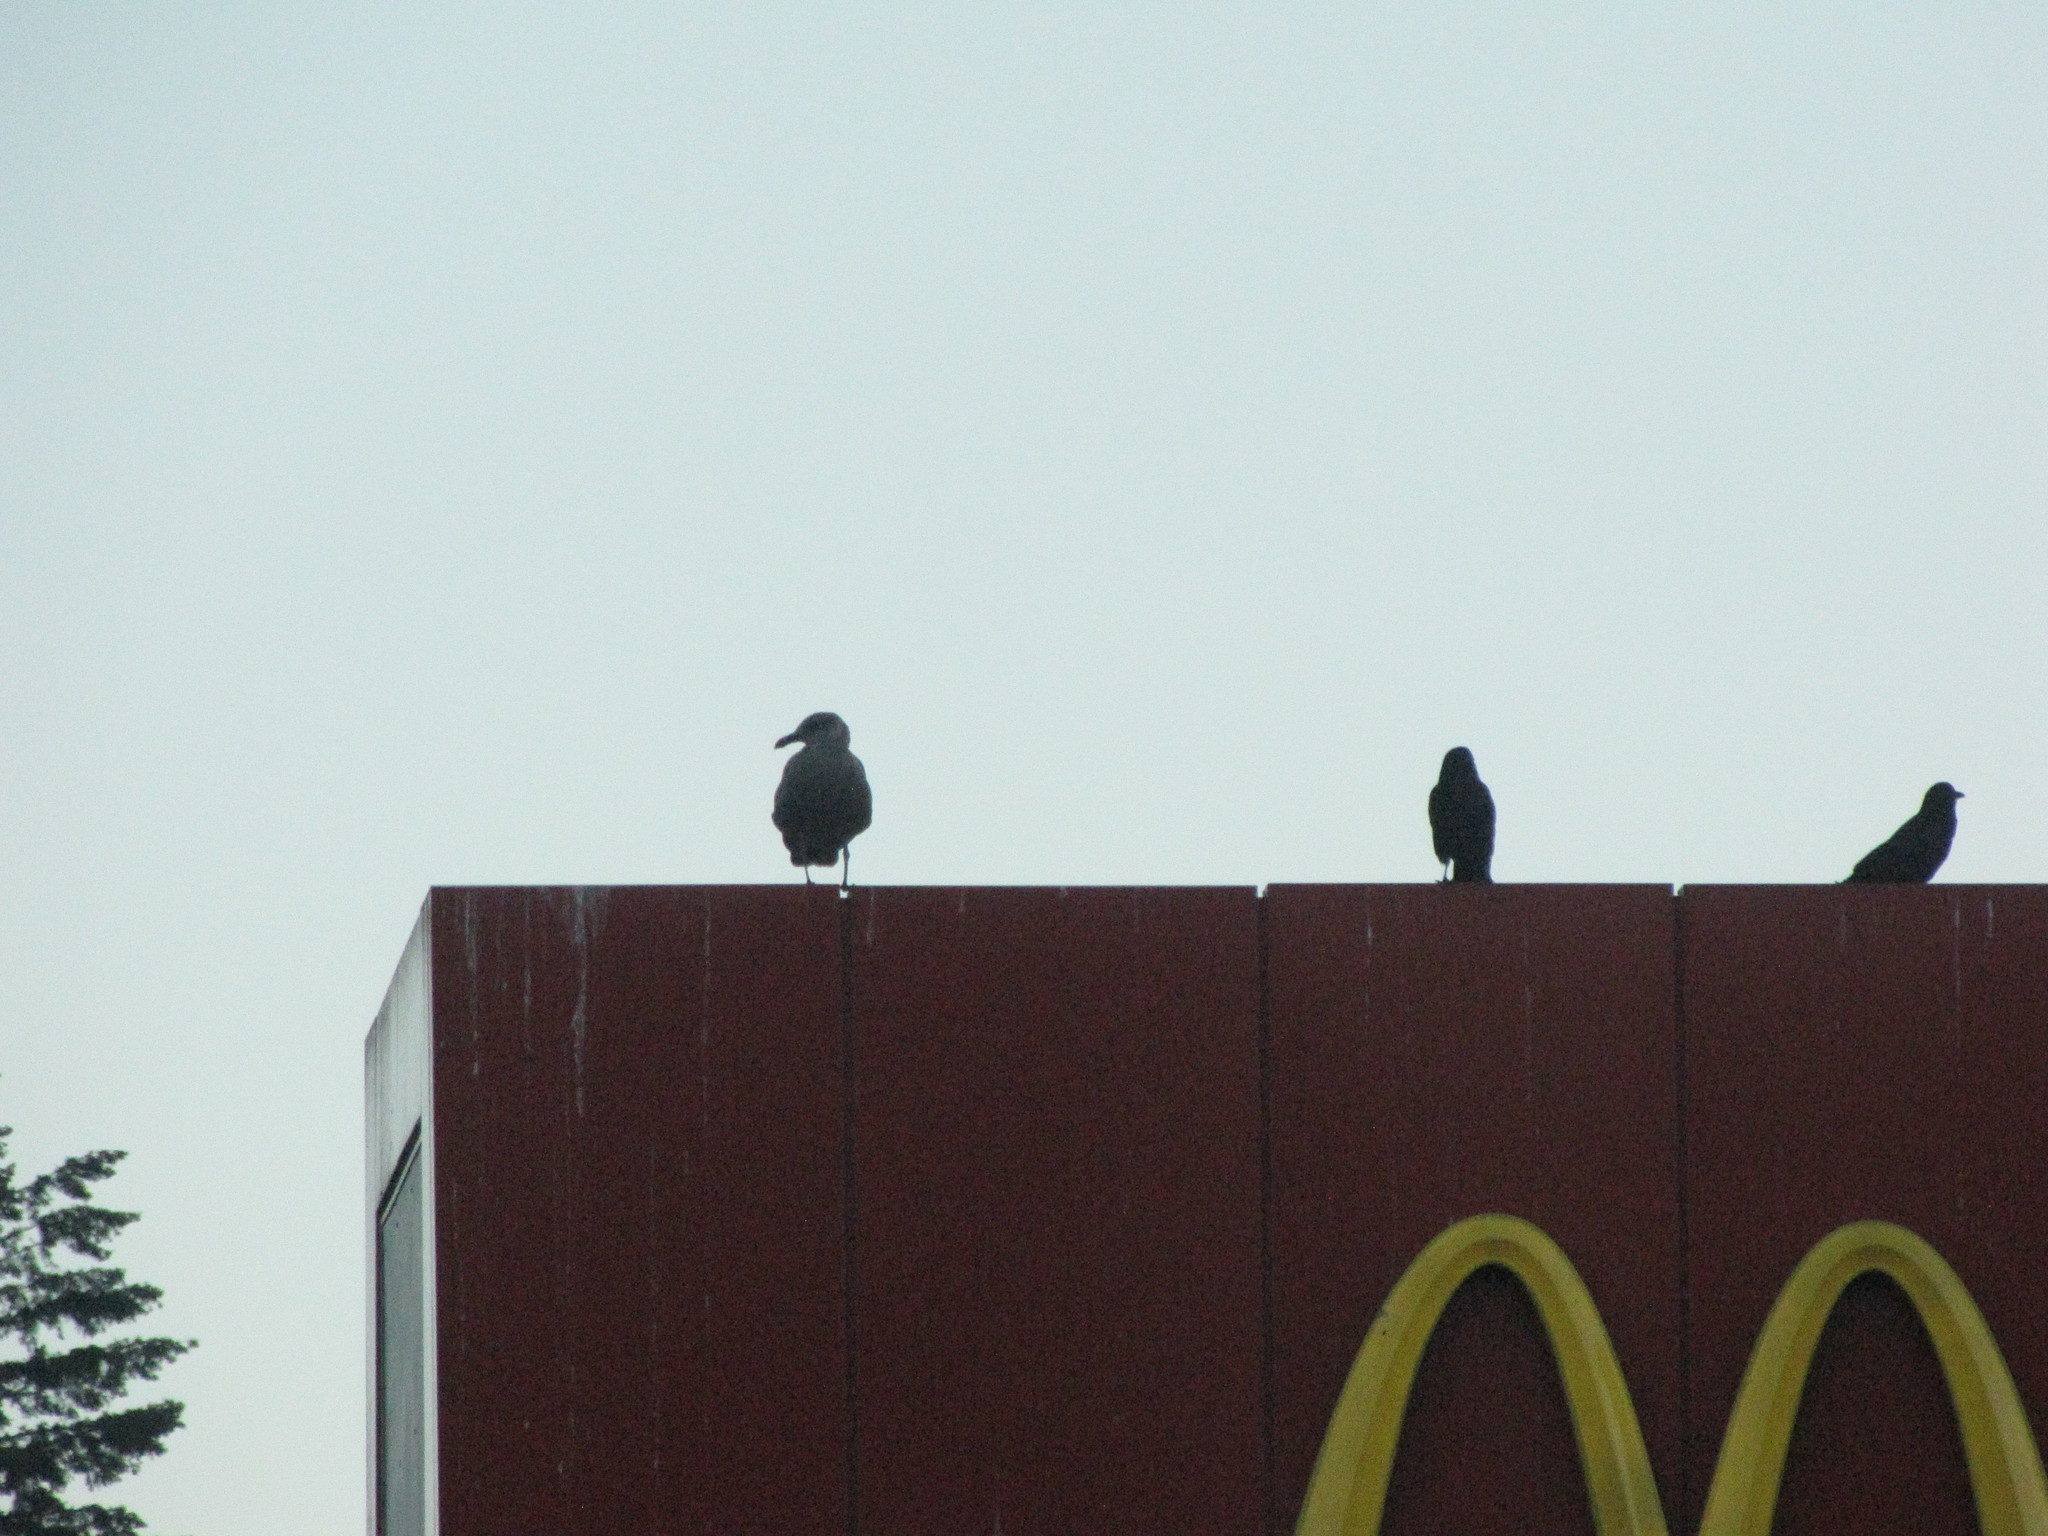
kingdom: Animalia
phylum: Chordata
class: Aves
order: Passeriformes
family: Corvidae
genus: Corvus
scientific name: Corvus brachyrhynchos
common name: American crow
